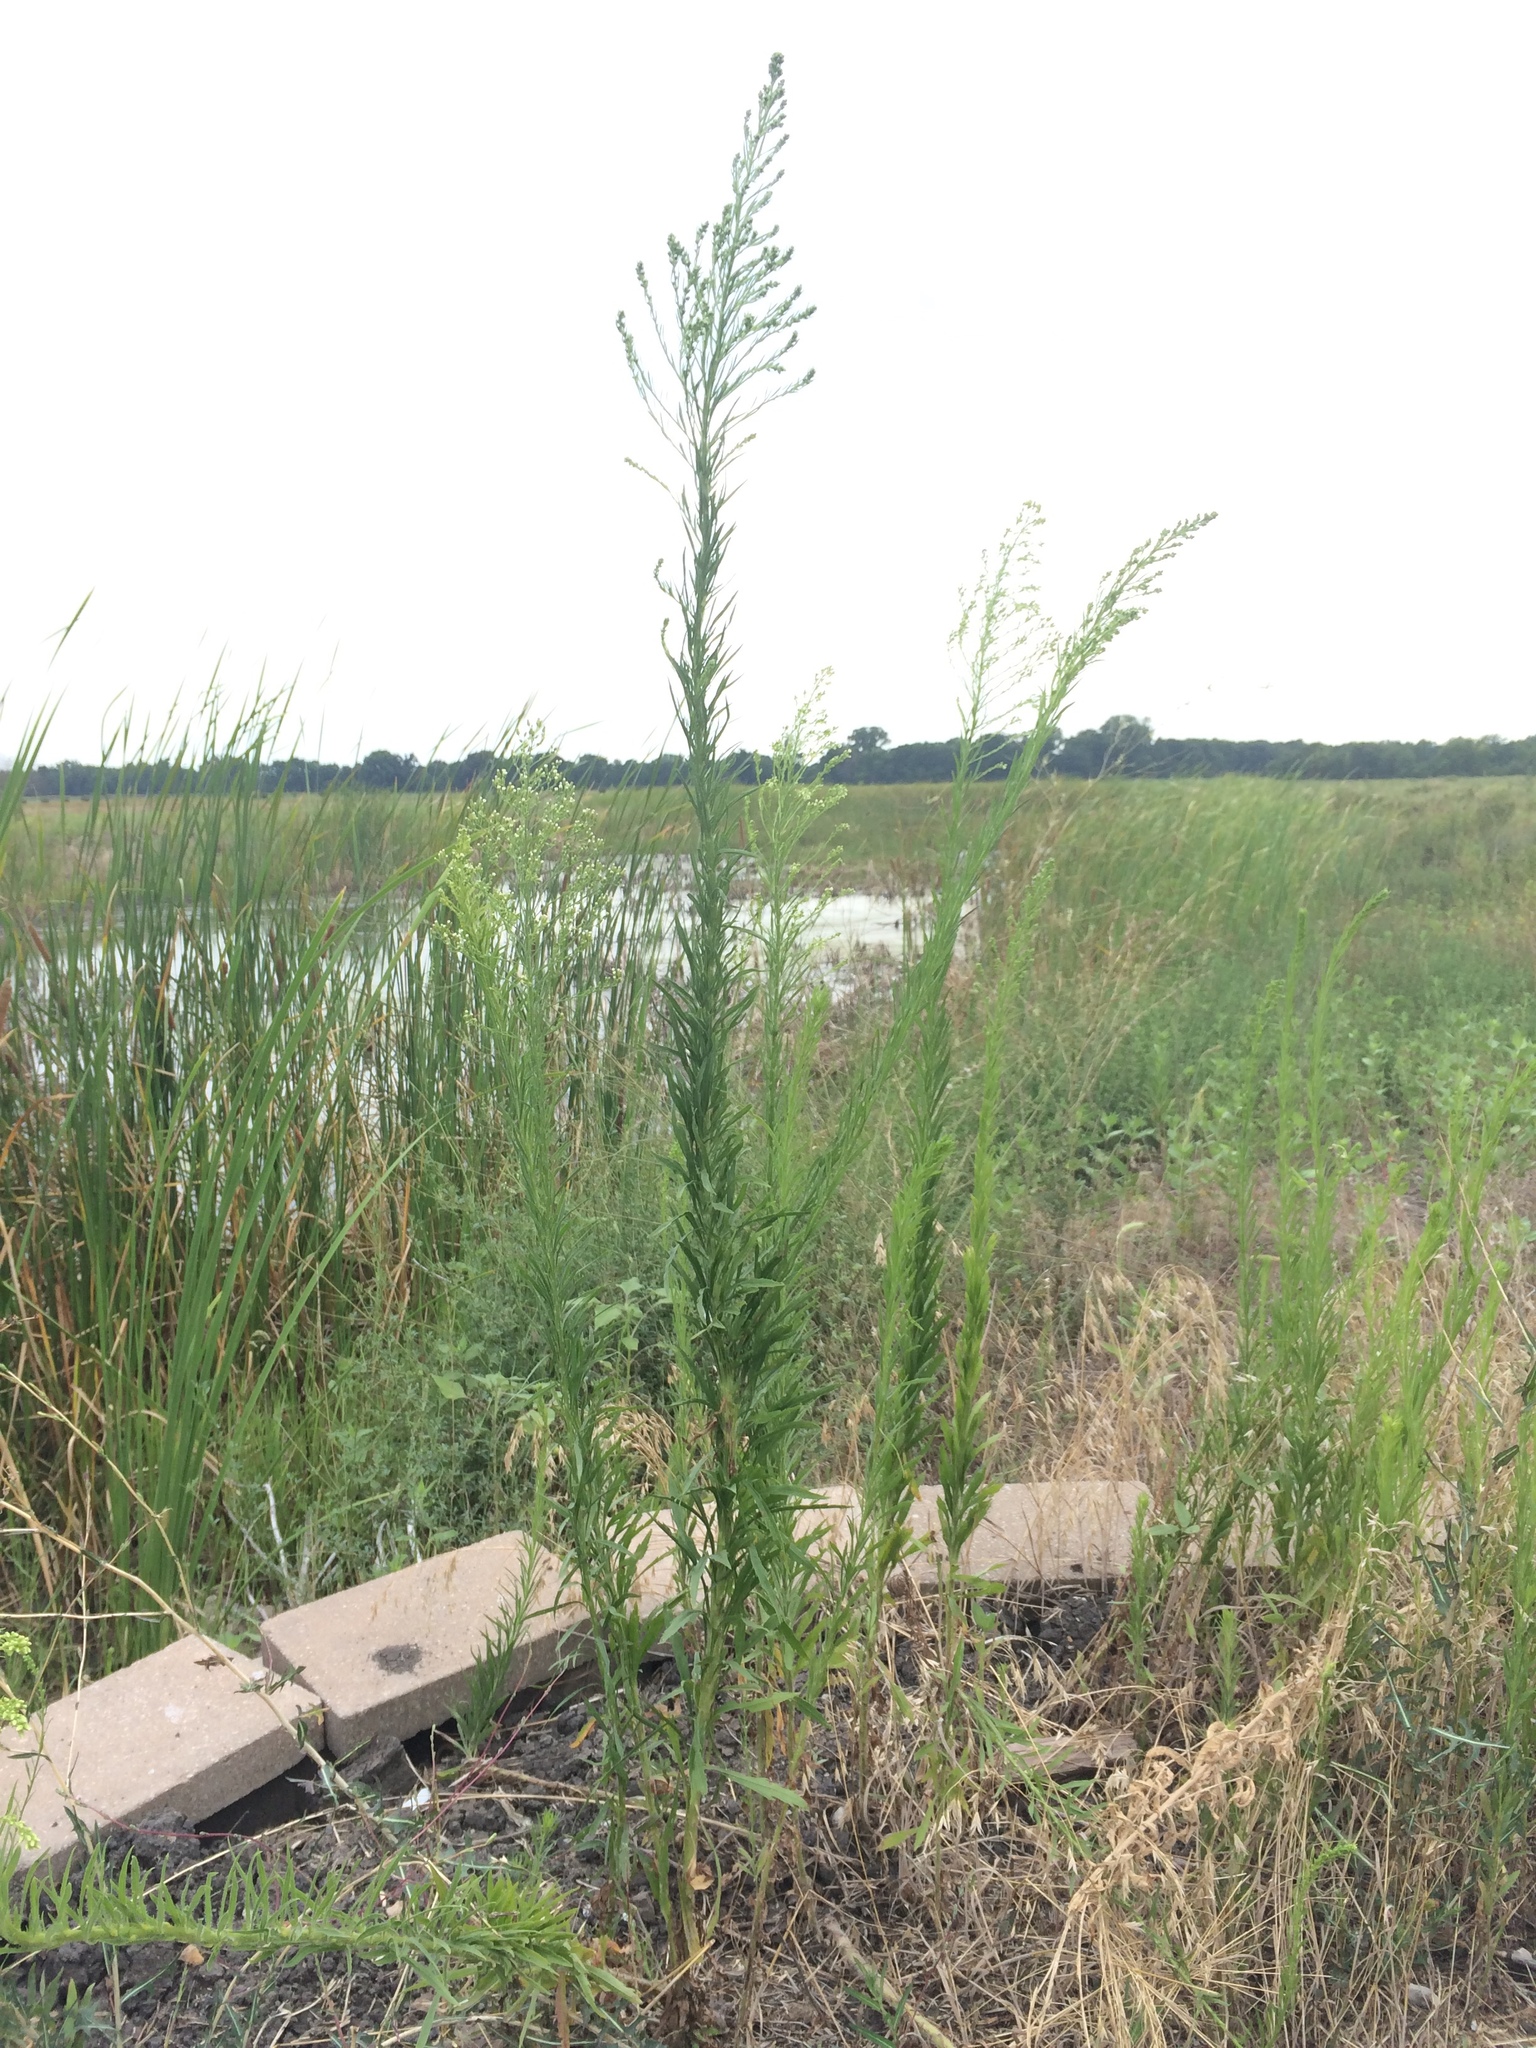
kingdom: Plantae
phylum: Tracheophyta
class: Magnoliopsida
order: Asterales
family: Asteraceae
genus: Erigeron
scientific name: Erigeron canadensis
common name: Canadian fleabane
